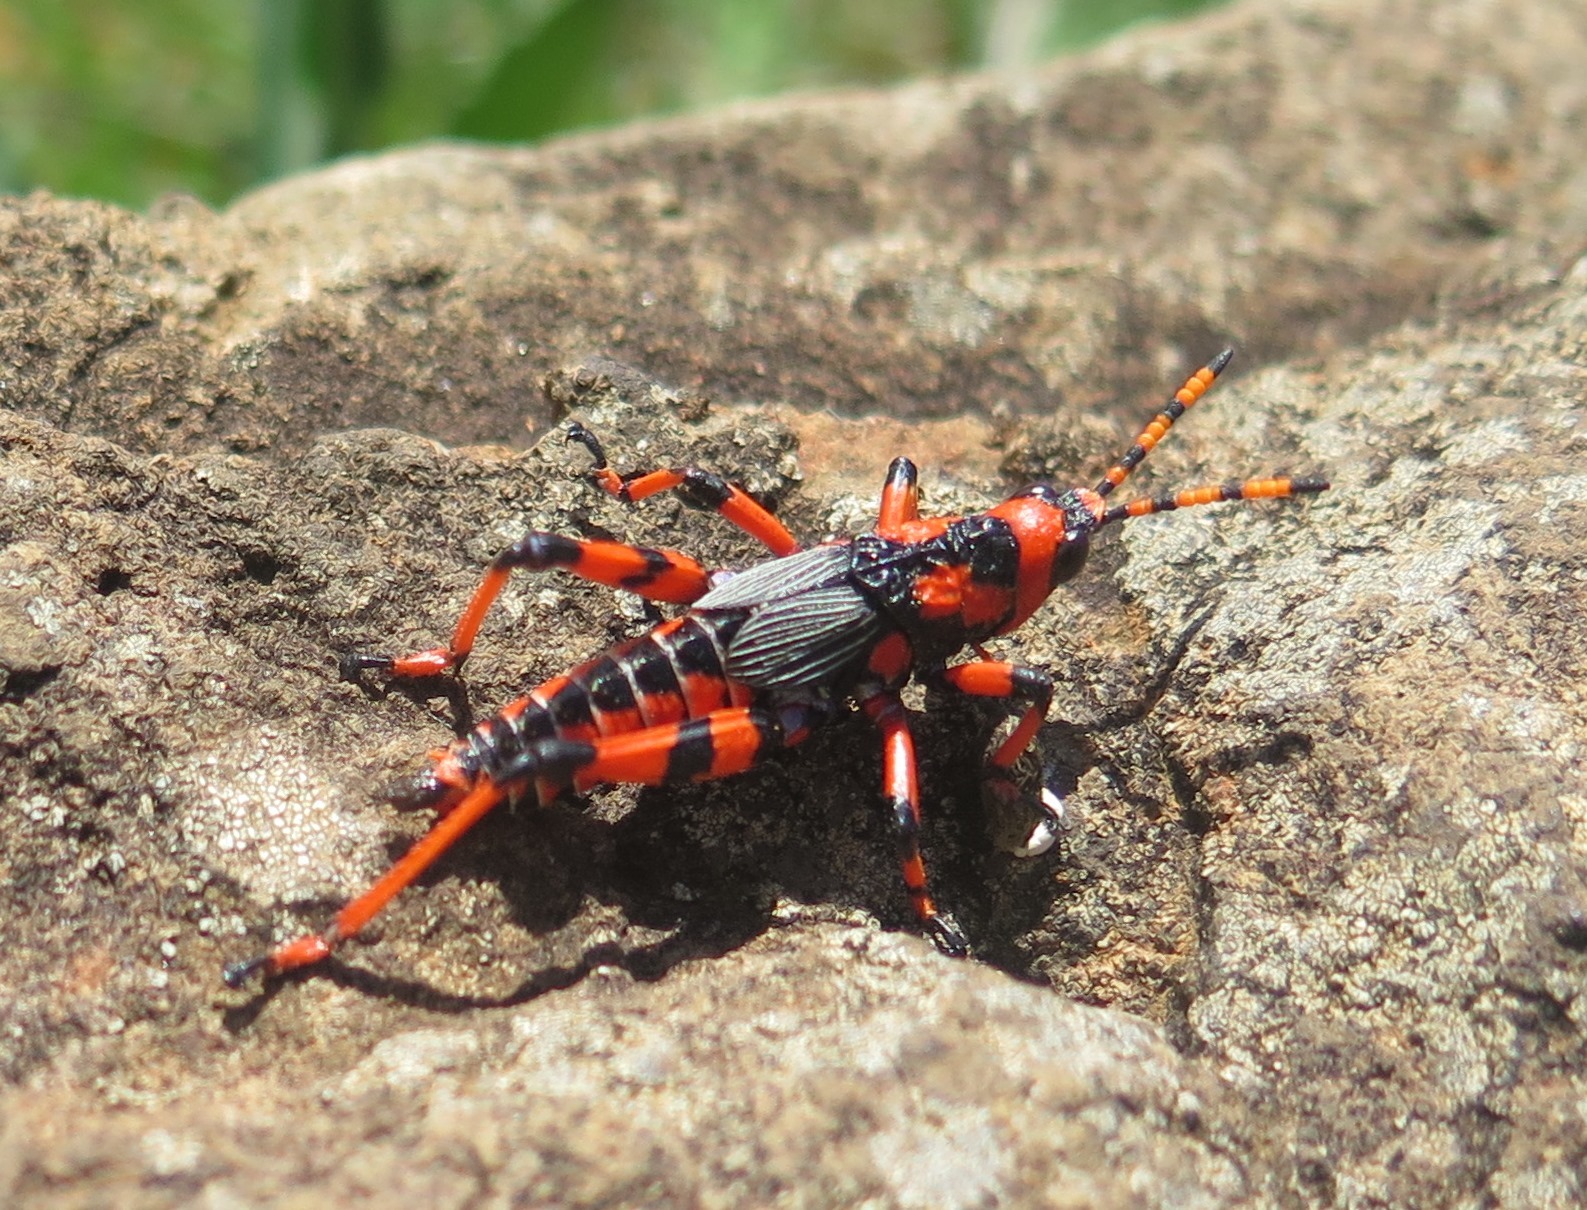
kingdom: Animalia
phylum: Arthropoda
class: Insecta
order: Orthoptera
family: Pyrgomorphidae
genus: Maura
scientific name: Maura rubroornata
